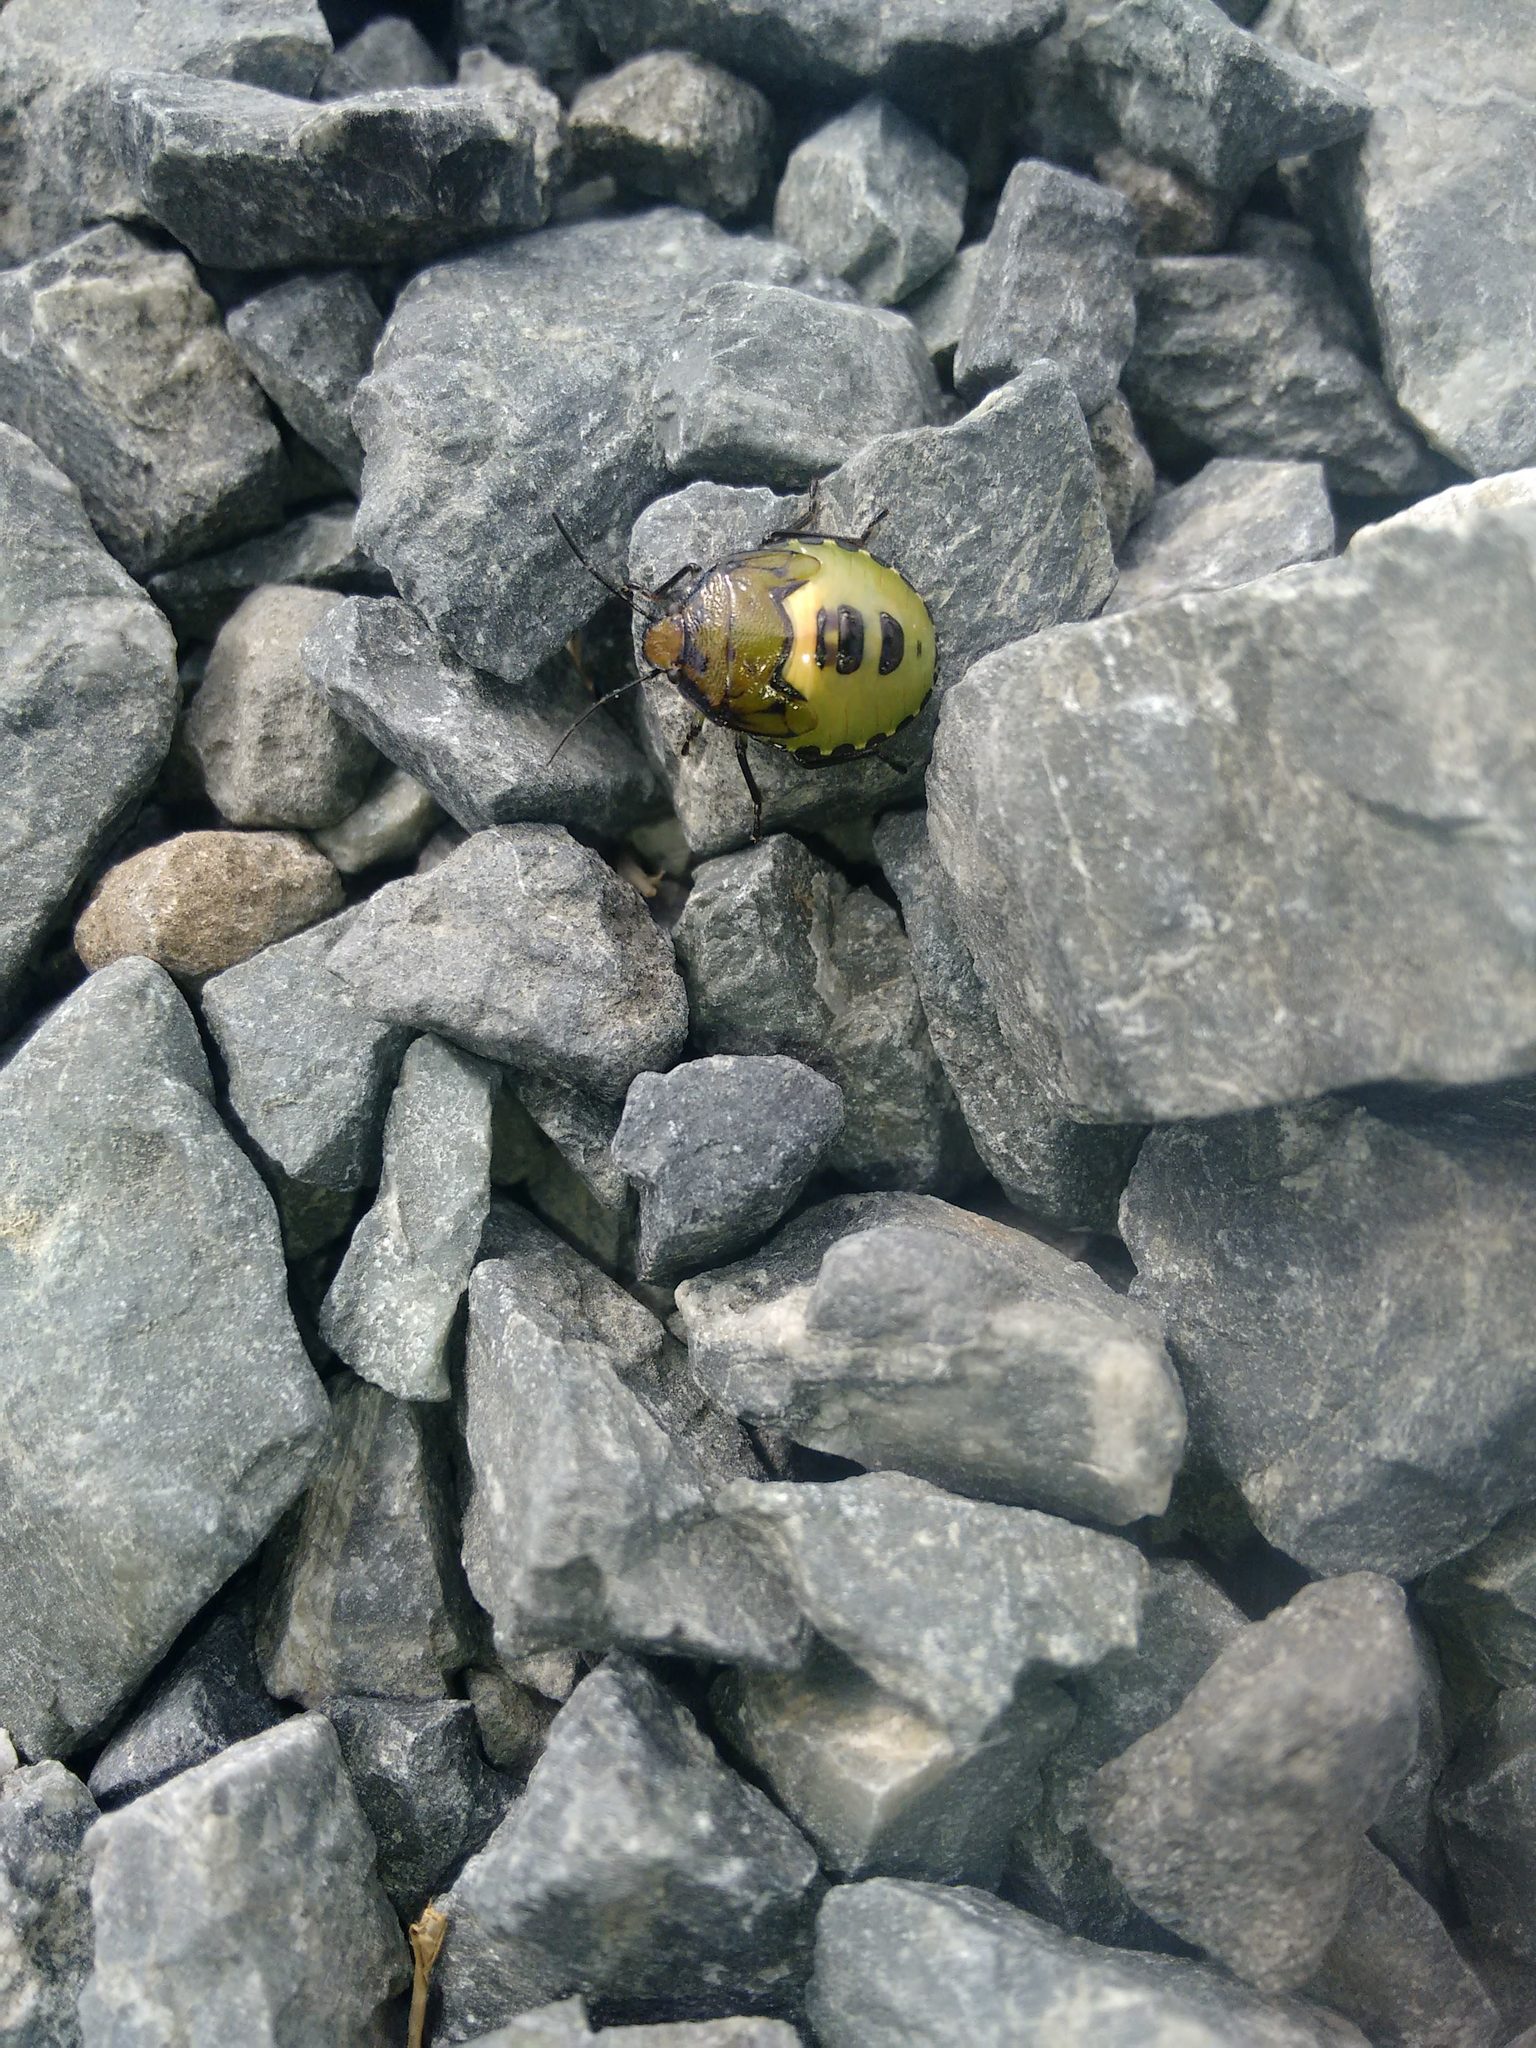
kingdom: Animalia
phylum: Arthropoda
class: Insecta
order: Hemiptera
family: Pentatomidae
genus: Glaucias
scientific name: Glaucias amyota
